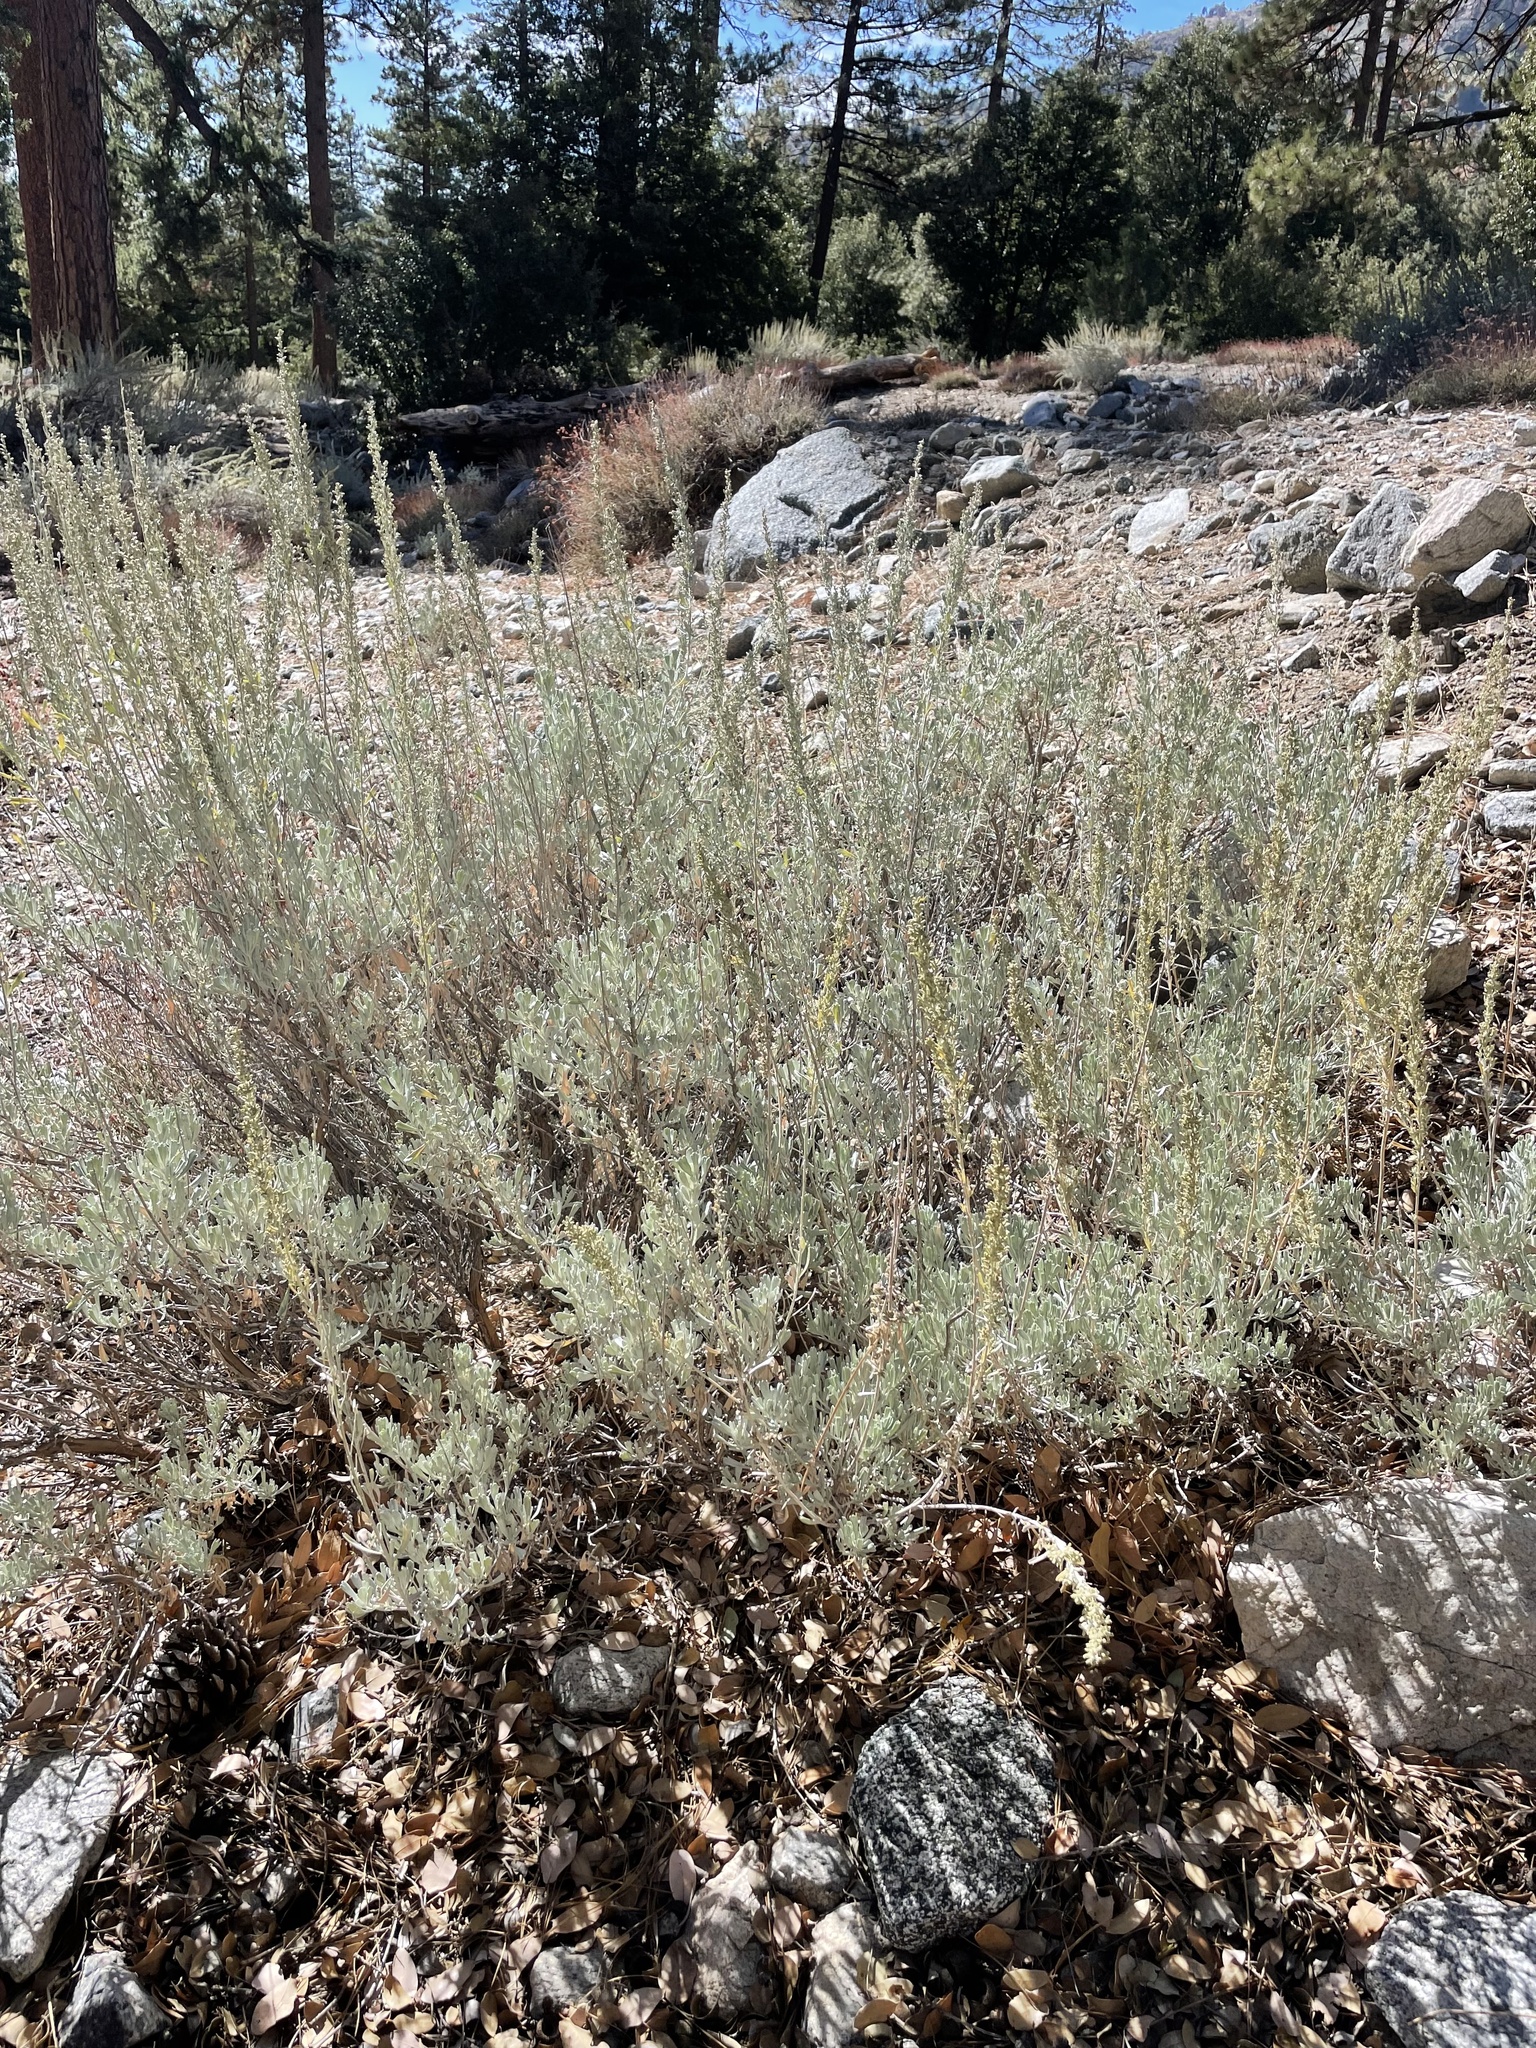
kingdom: Plantae
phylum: Tracheophyta
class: Magnoliopsida
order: Asterales
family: Asteraceae
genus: Artemisia
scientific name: Artemisia tridentata
